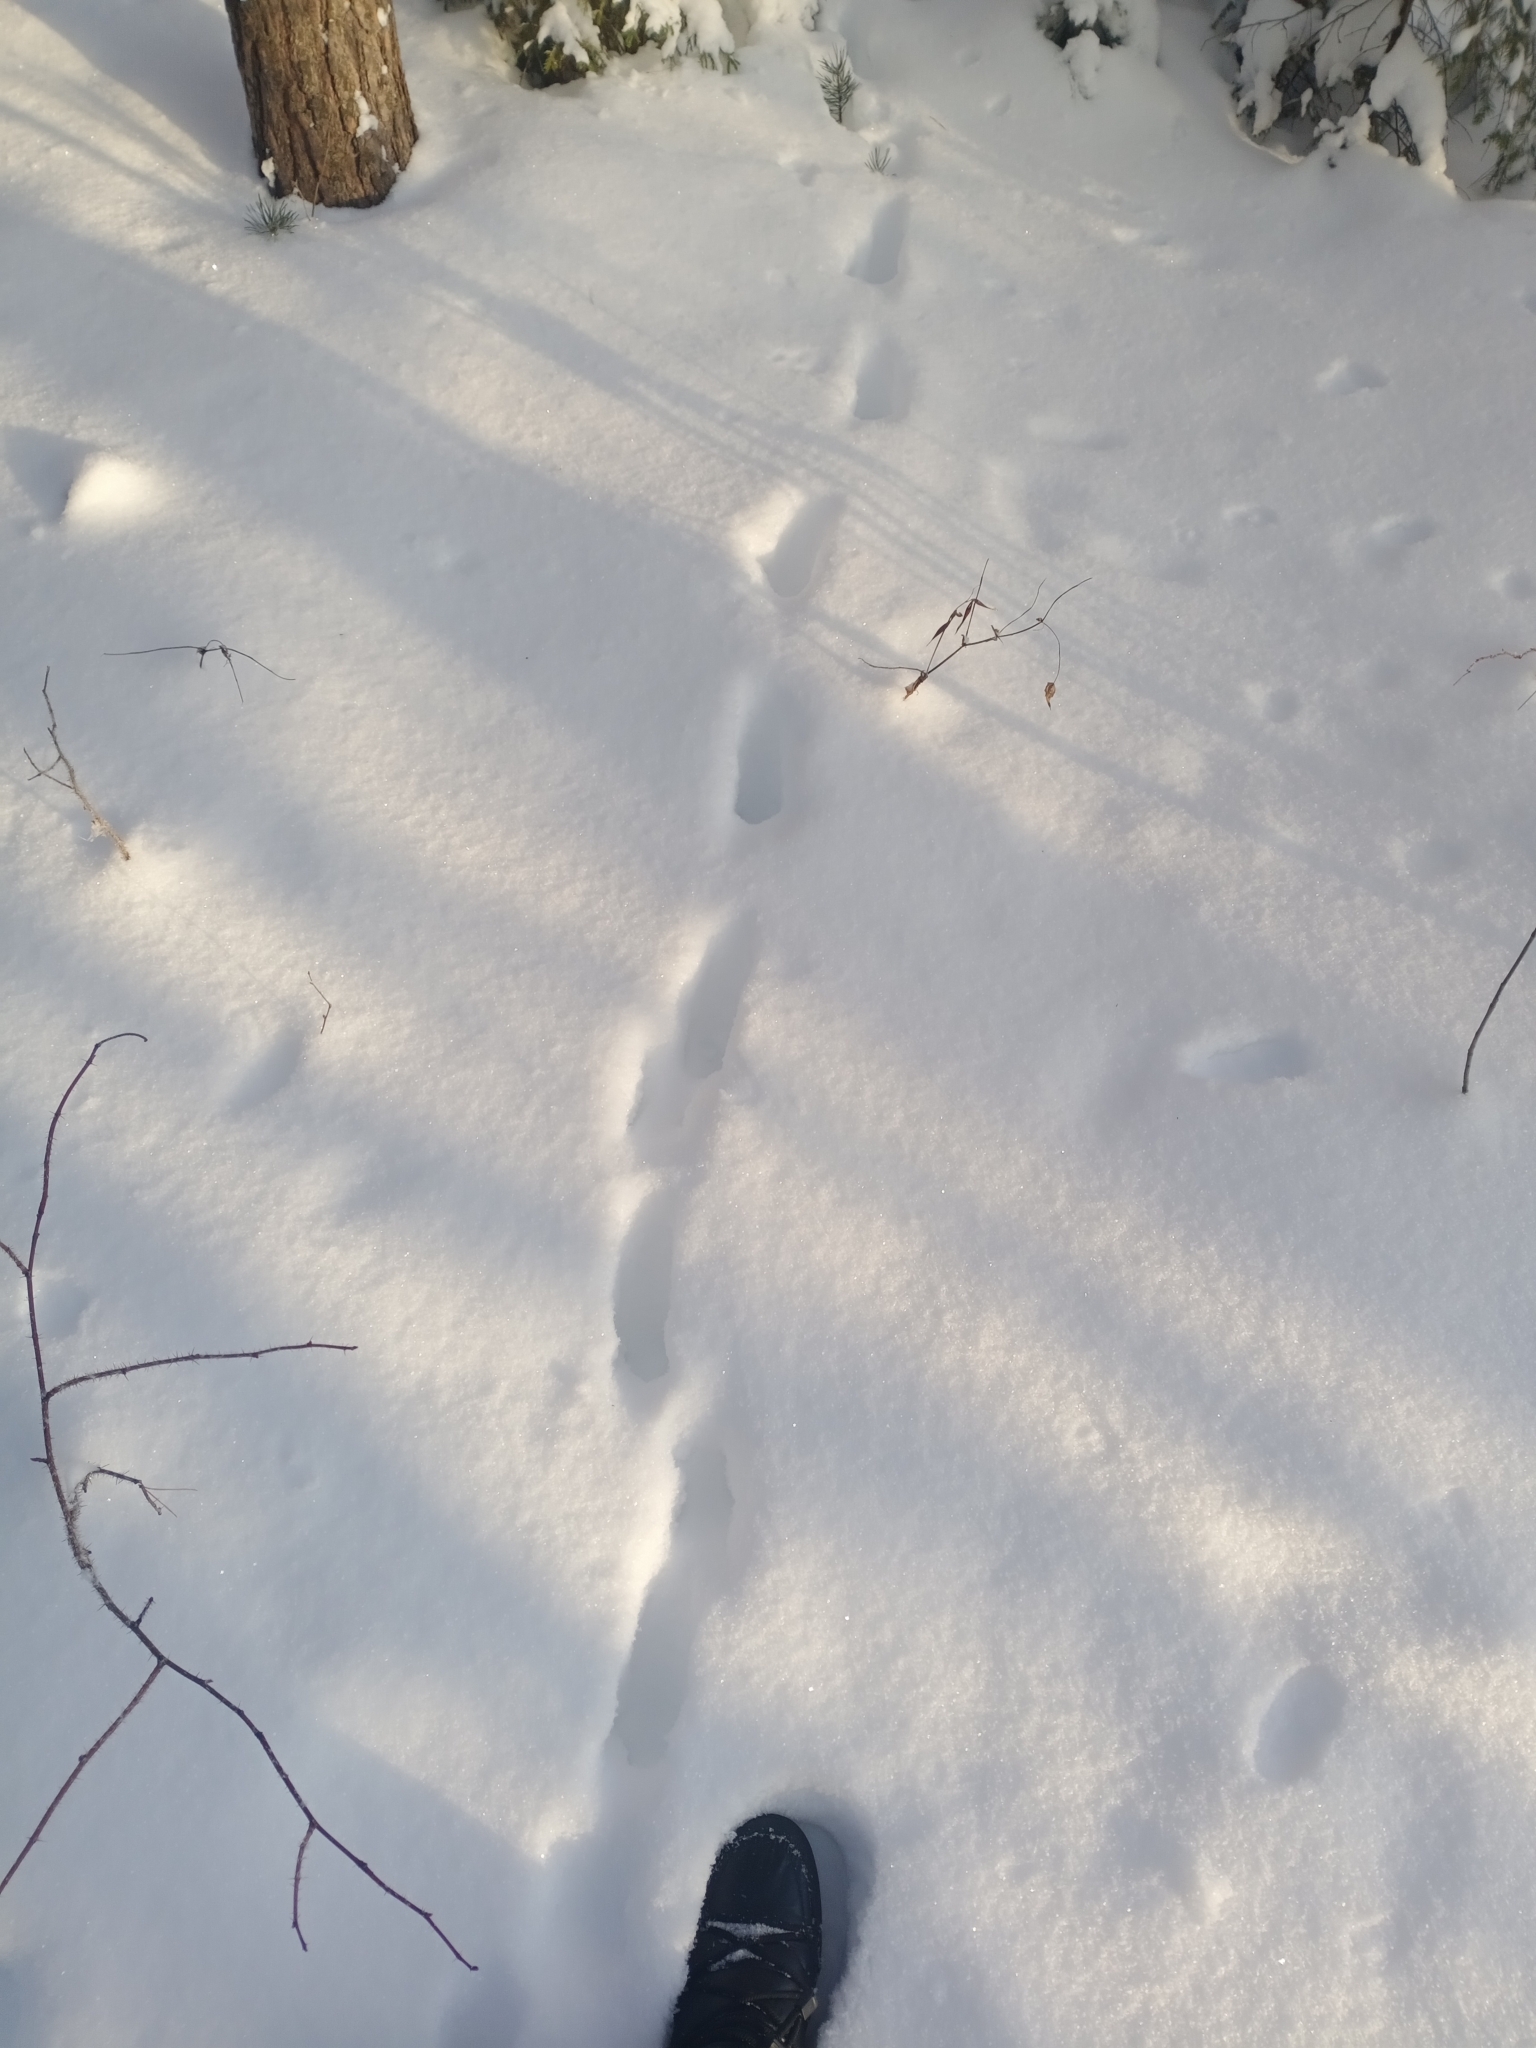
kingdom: Animalia
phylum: Chordata
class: Mammalia
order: Carnivora
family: Canidae
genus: Vulpes
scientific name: Vulpes vulpes
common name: Red fox
